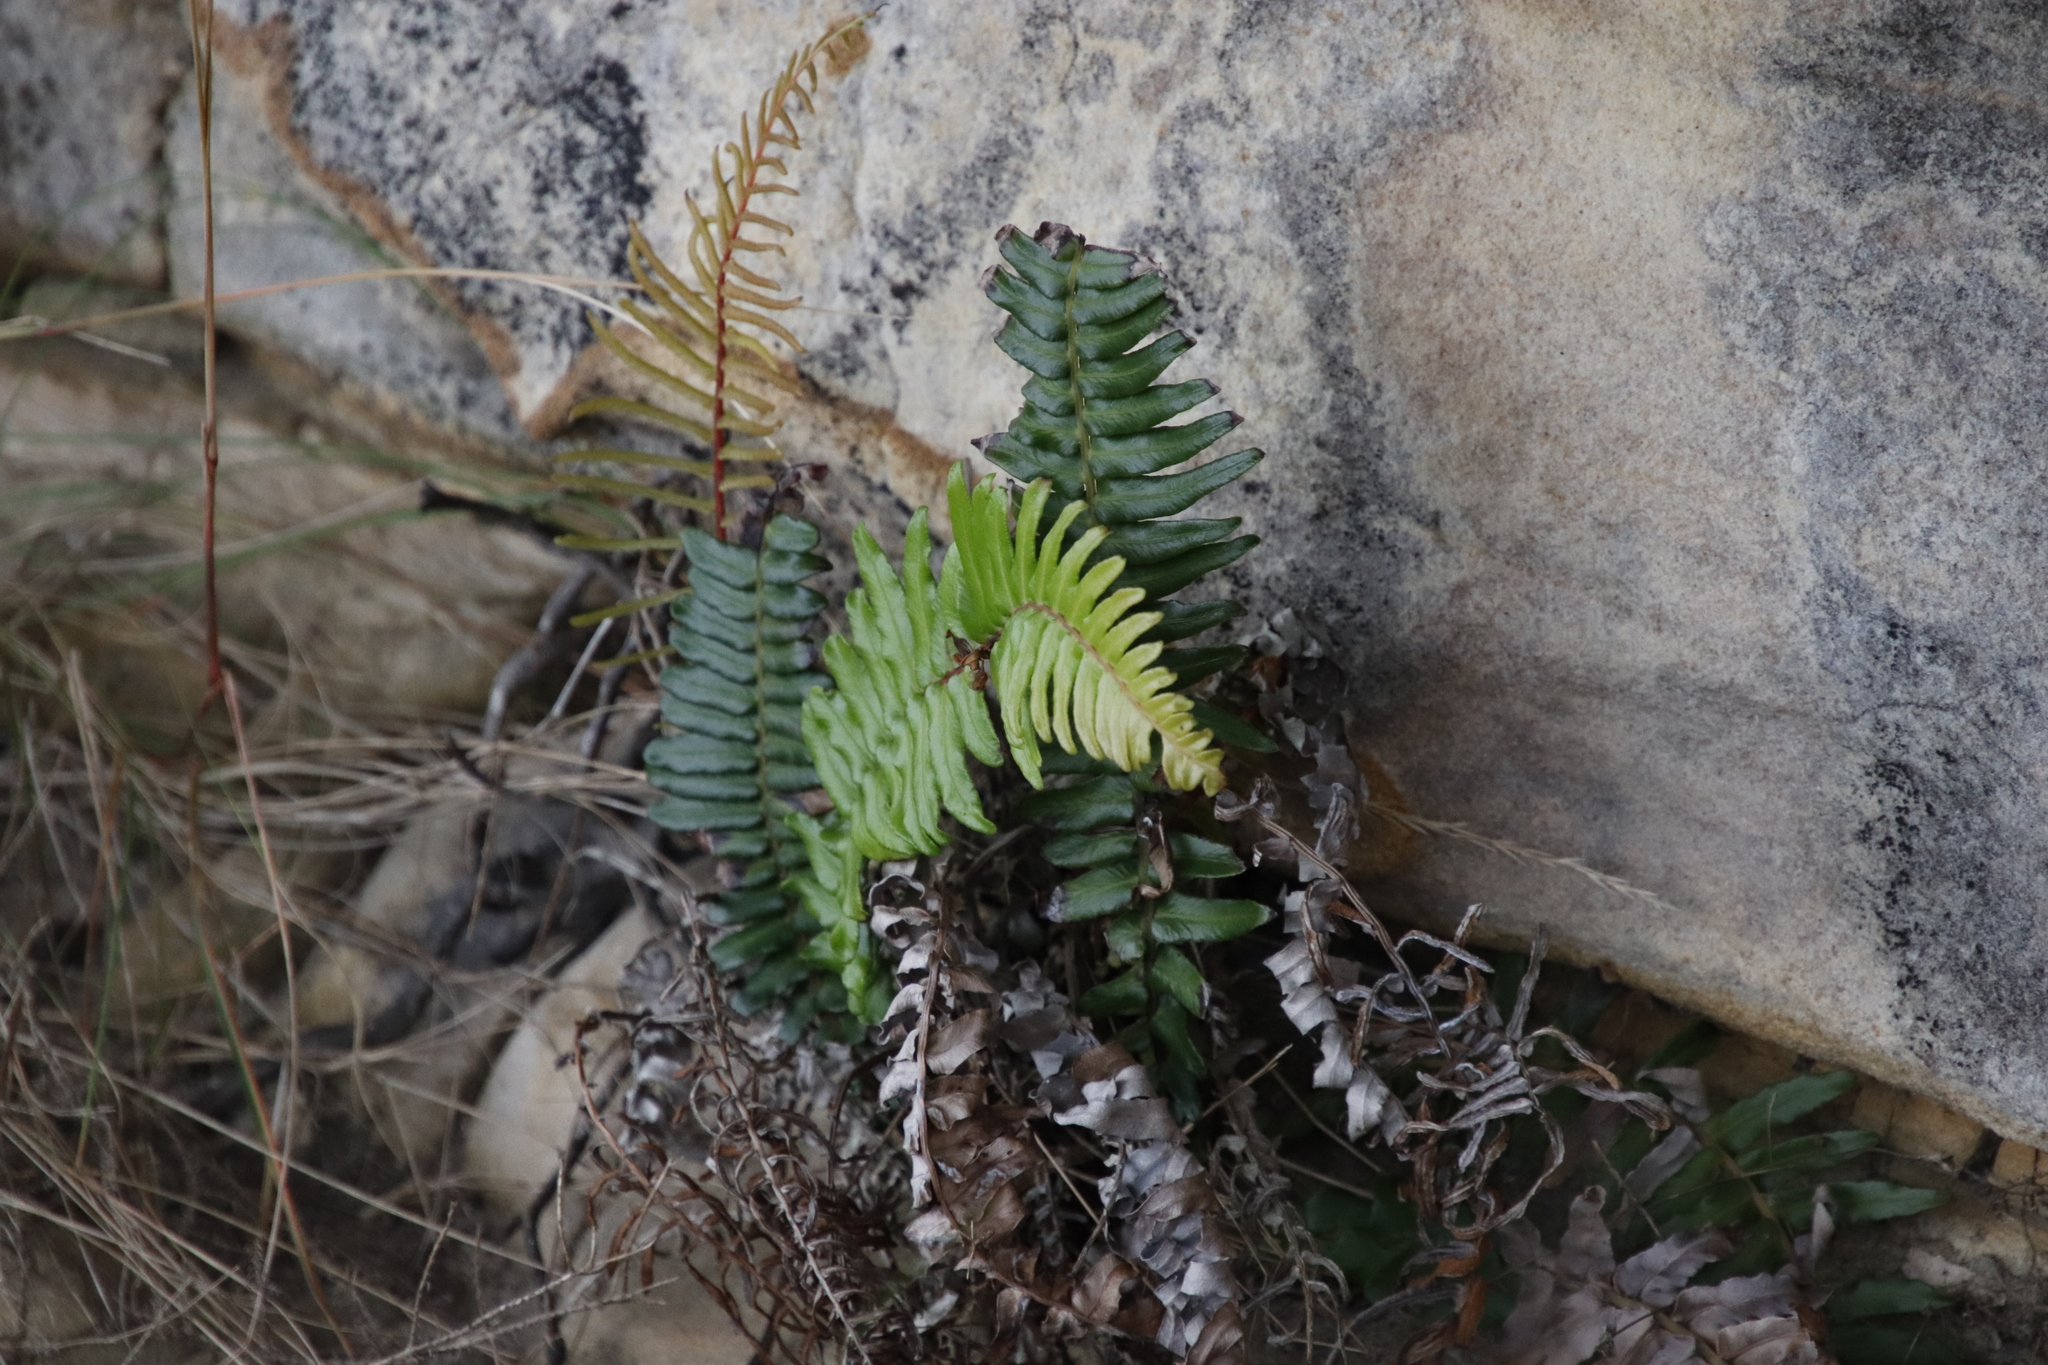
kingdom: Plantae
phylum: Tracheophyta
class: Polypodiopsida
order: Polypodiales
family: Blechnaceae
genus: Blechnum
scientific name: Blechnum punctulatum
